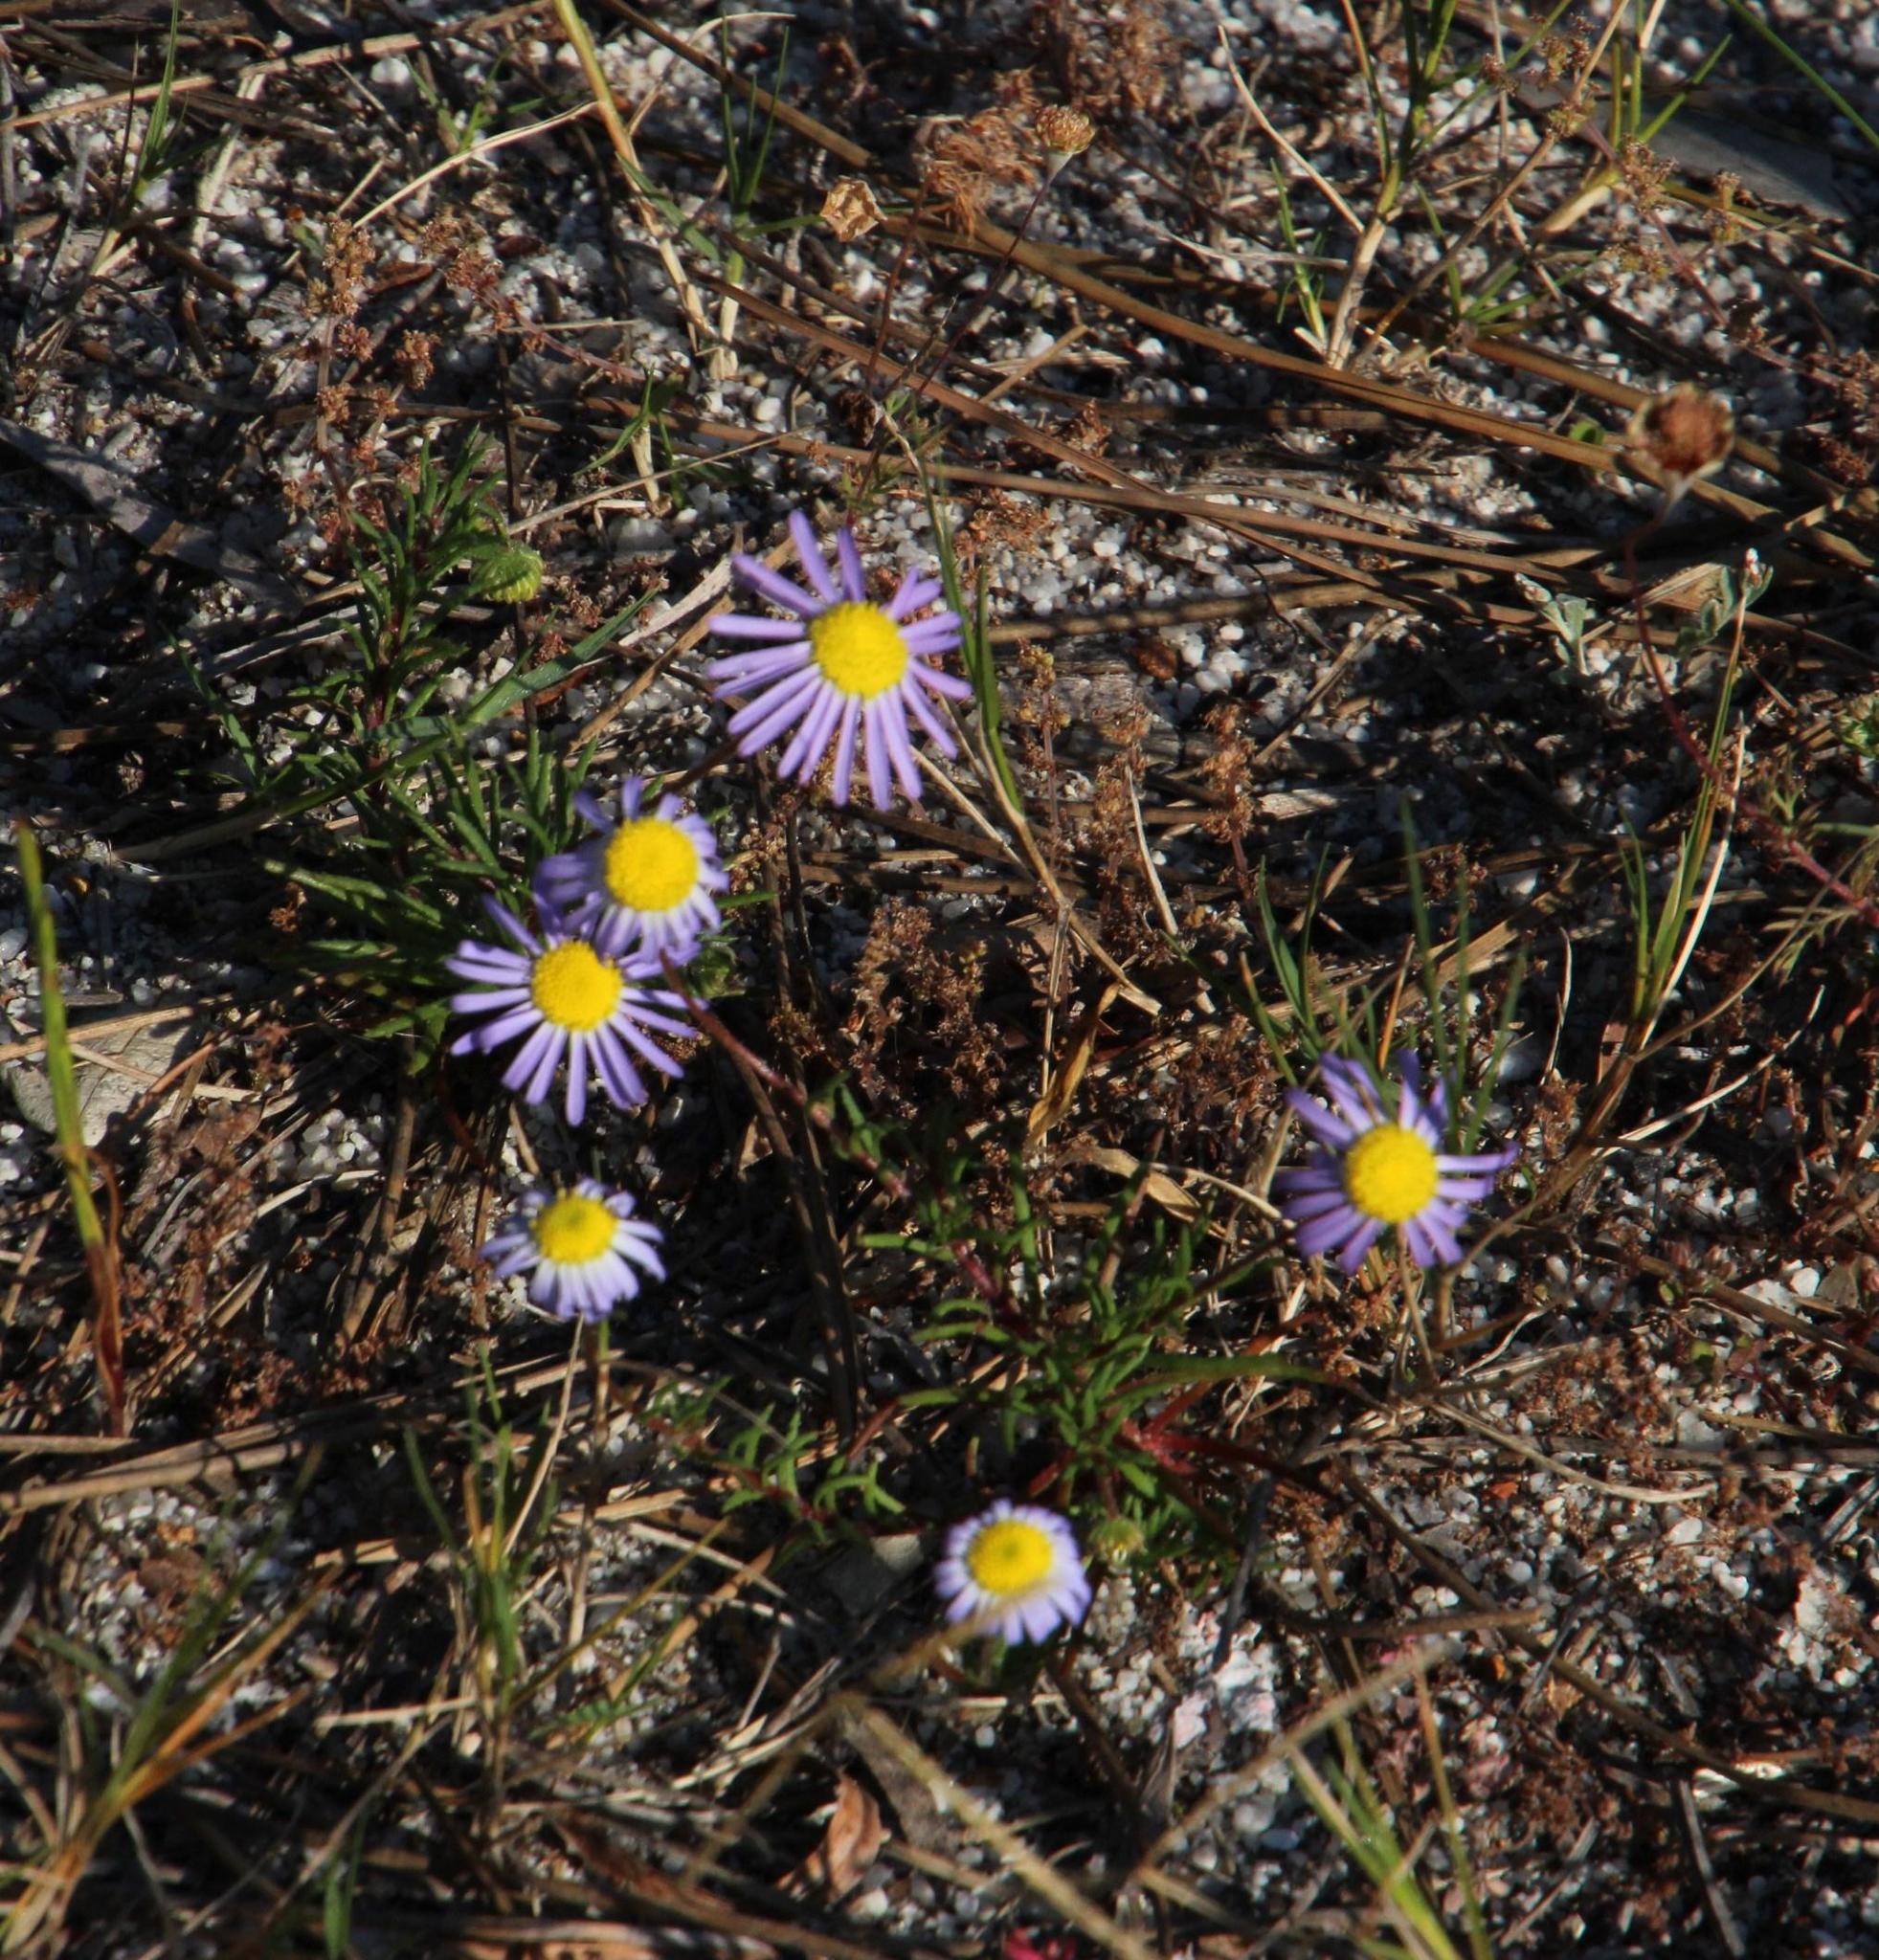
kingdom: Plantae
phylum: Tracheophyta
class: Magnoliopsida
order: Asterales
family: Asteraceae
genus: Felicia
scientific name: Felicia tenella
